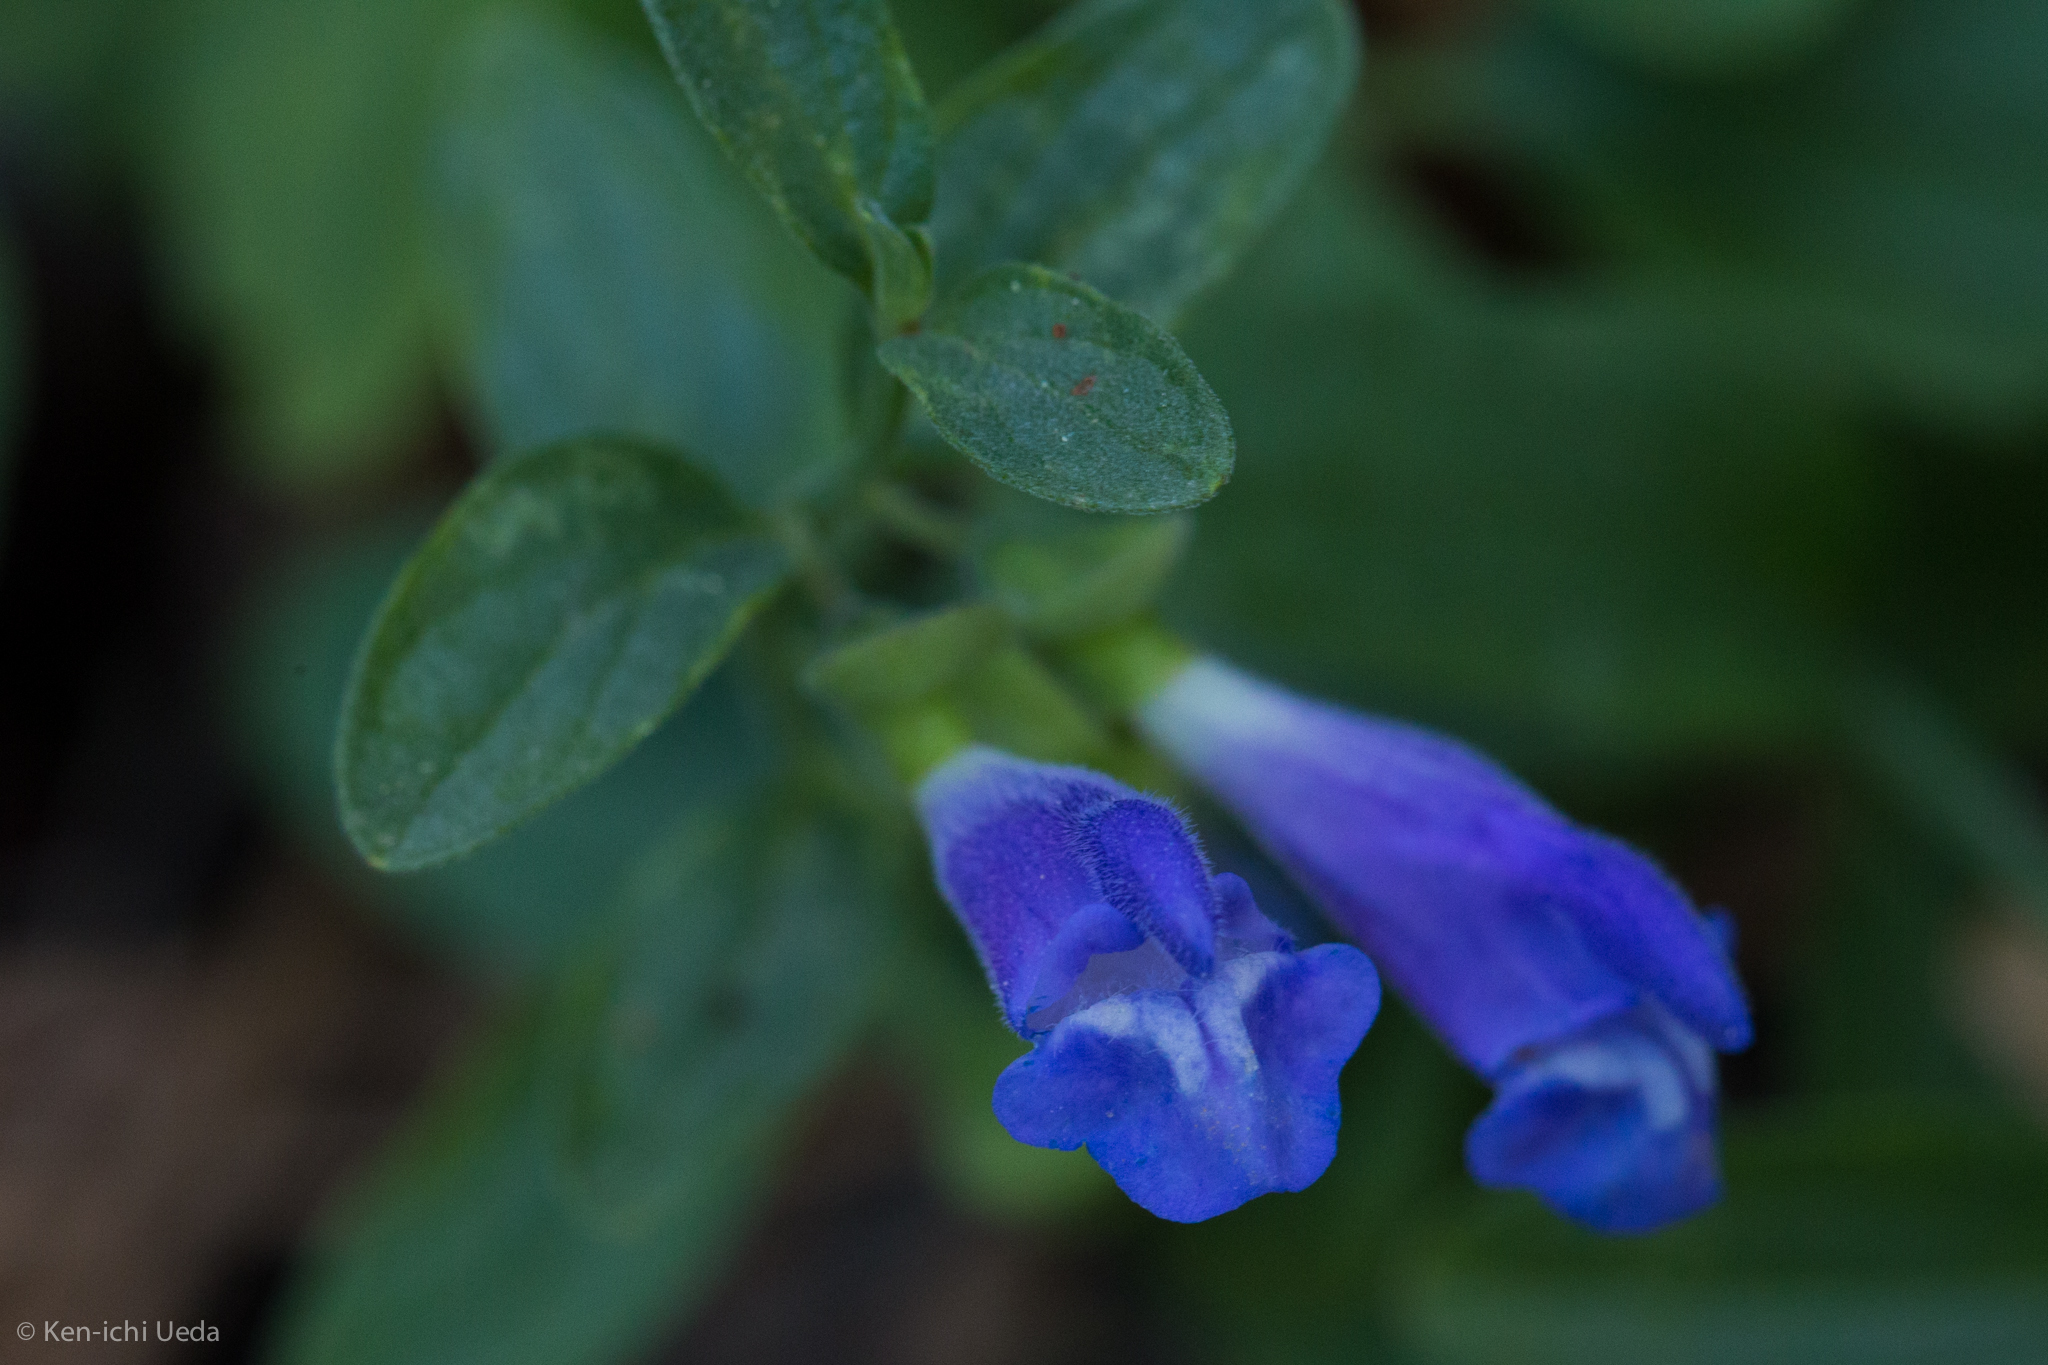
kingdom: Plantae
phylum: Tracheophyta
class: Magnoliopsida
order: Lamiales
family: Lamiaceae
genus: Scutellaria
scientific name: Scutellaria antirrhinoides
